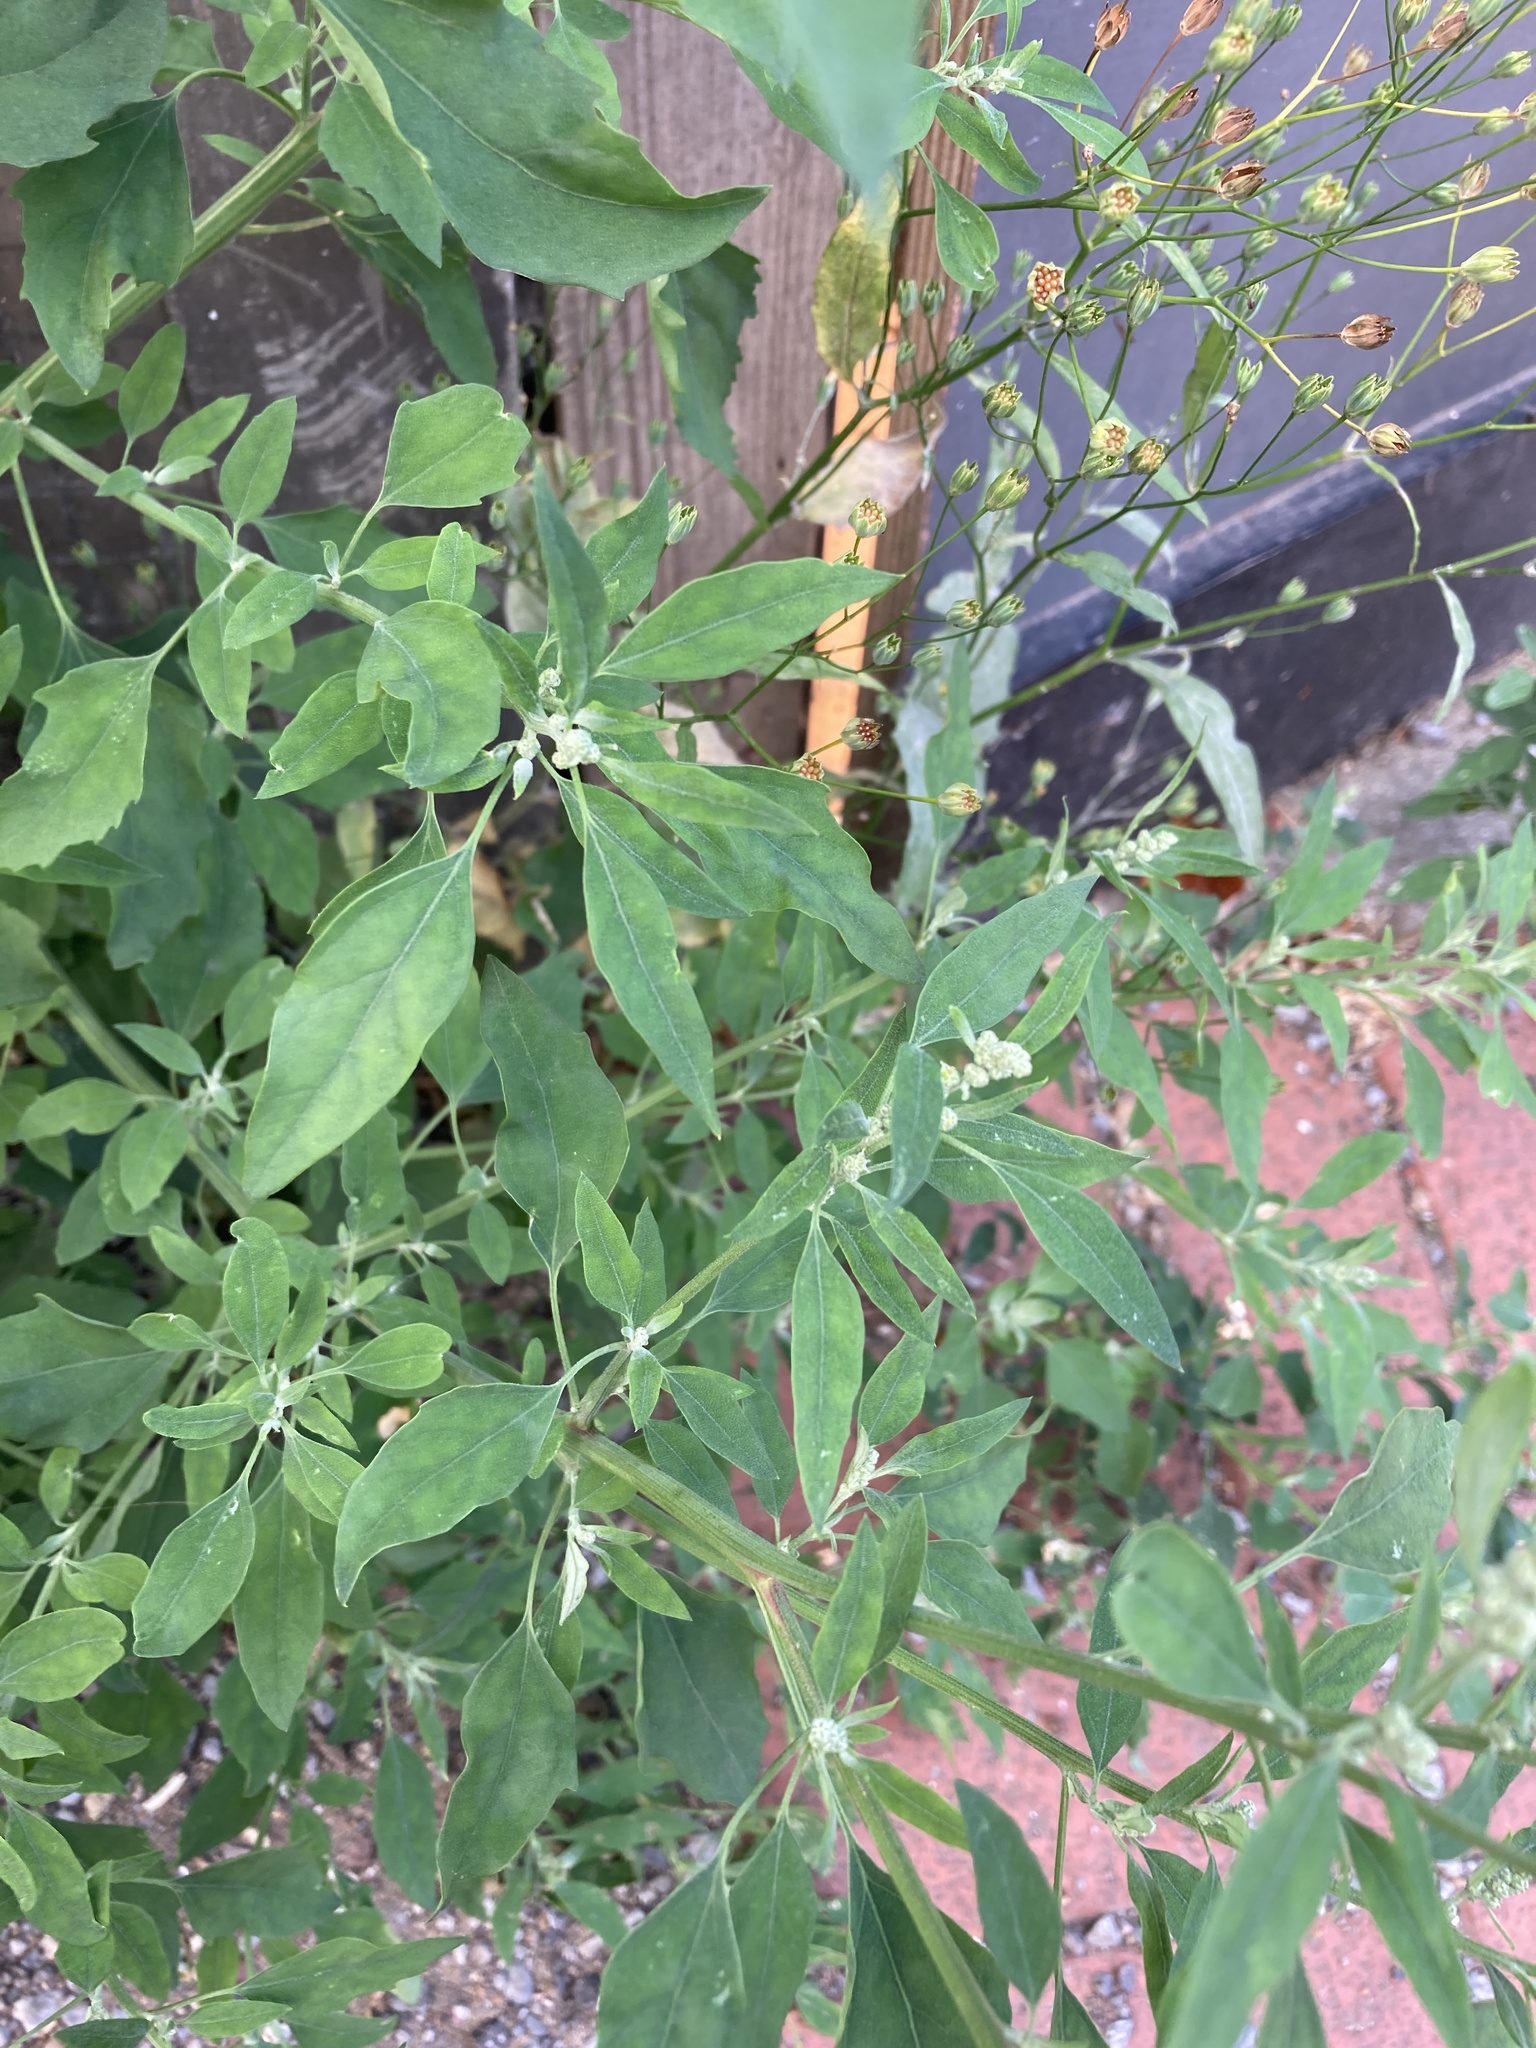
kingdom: Plantae
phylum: Tracheophyta
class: Magnoliopsida
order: Caryophyllales
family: Amaranthaceae
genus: Chenopodium
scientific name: Chenopodium album
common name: Fat-hen
